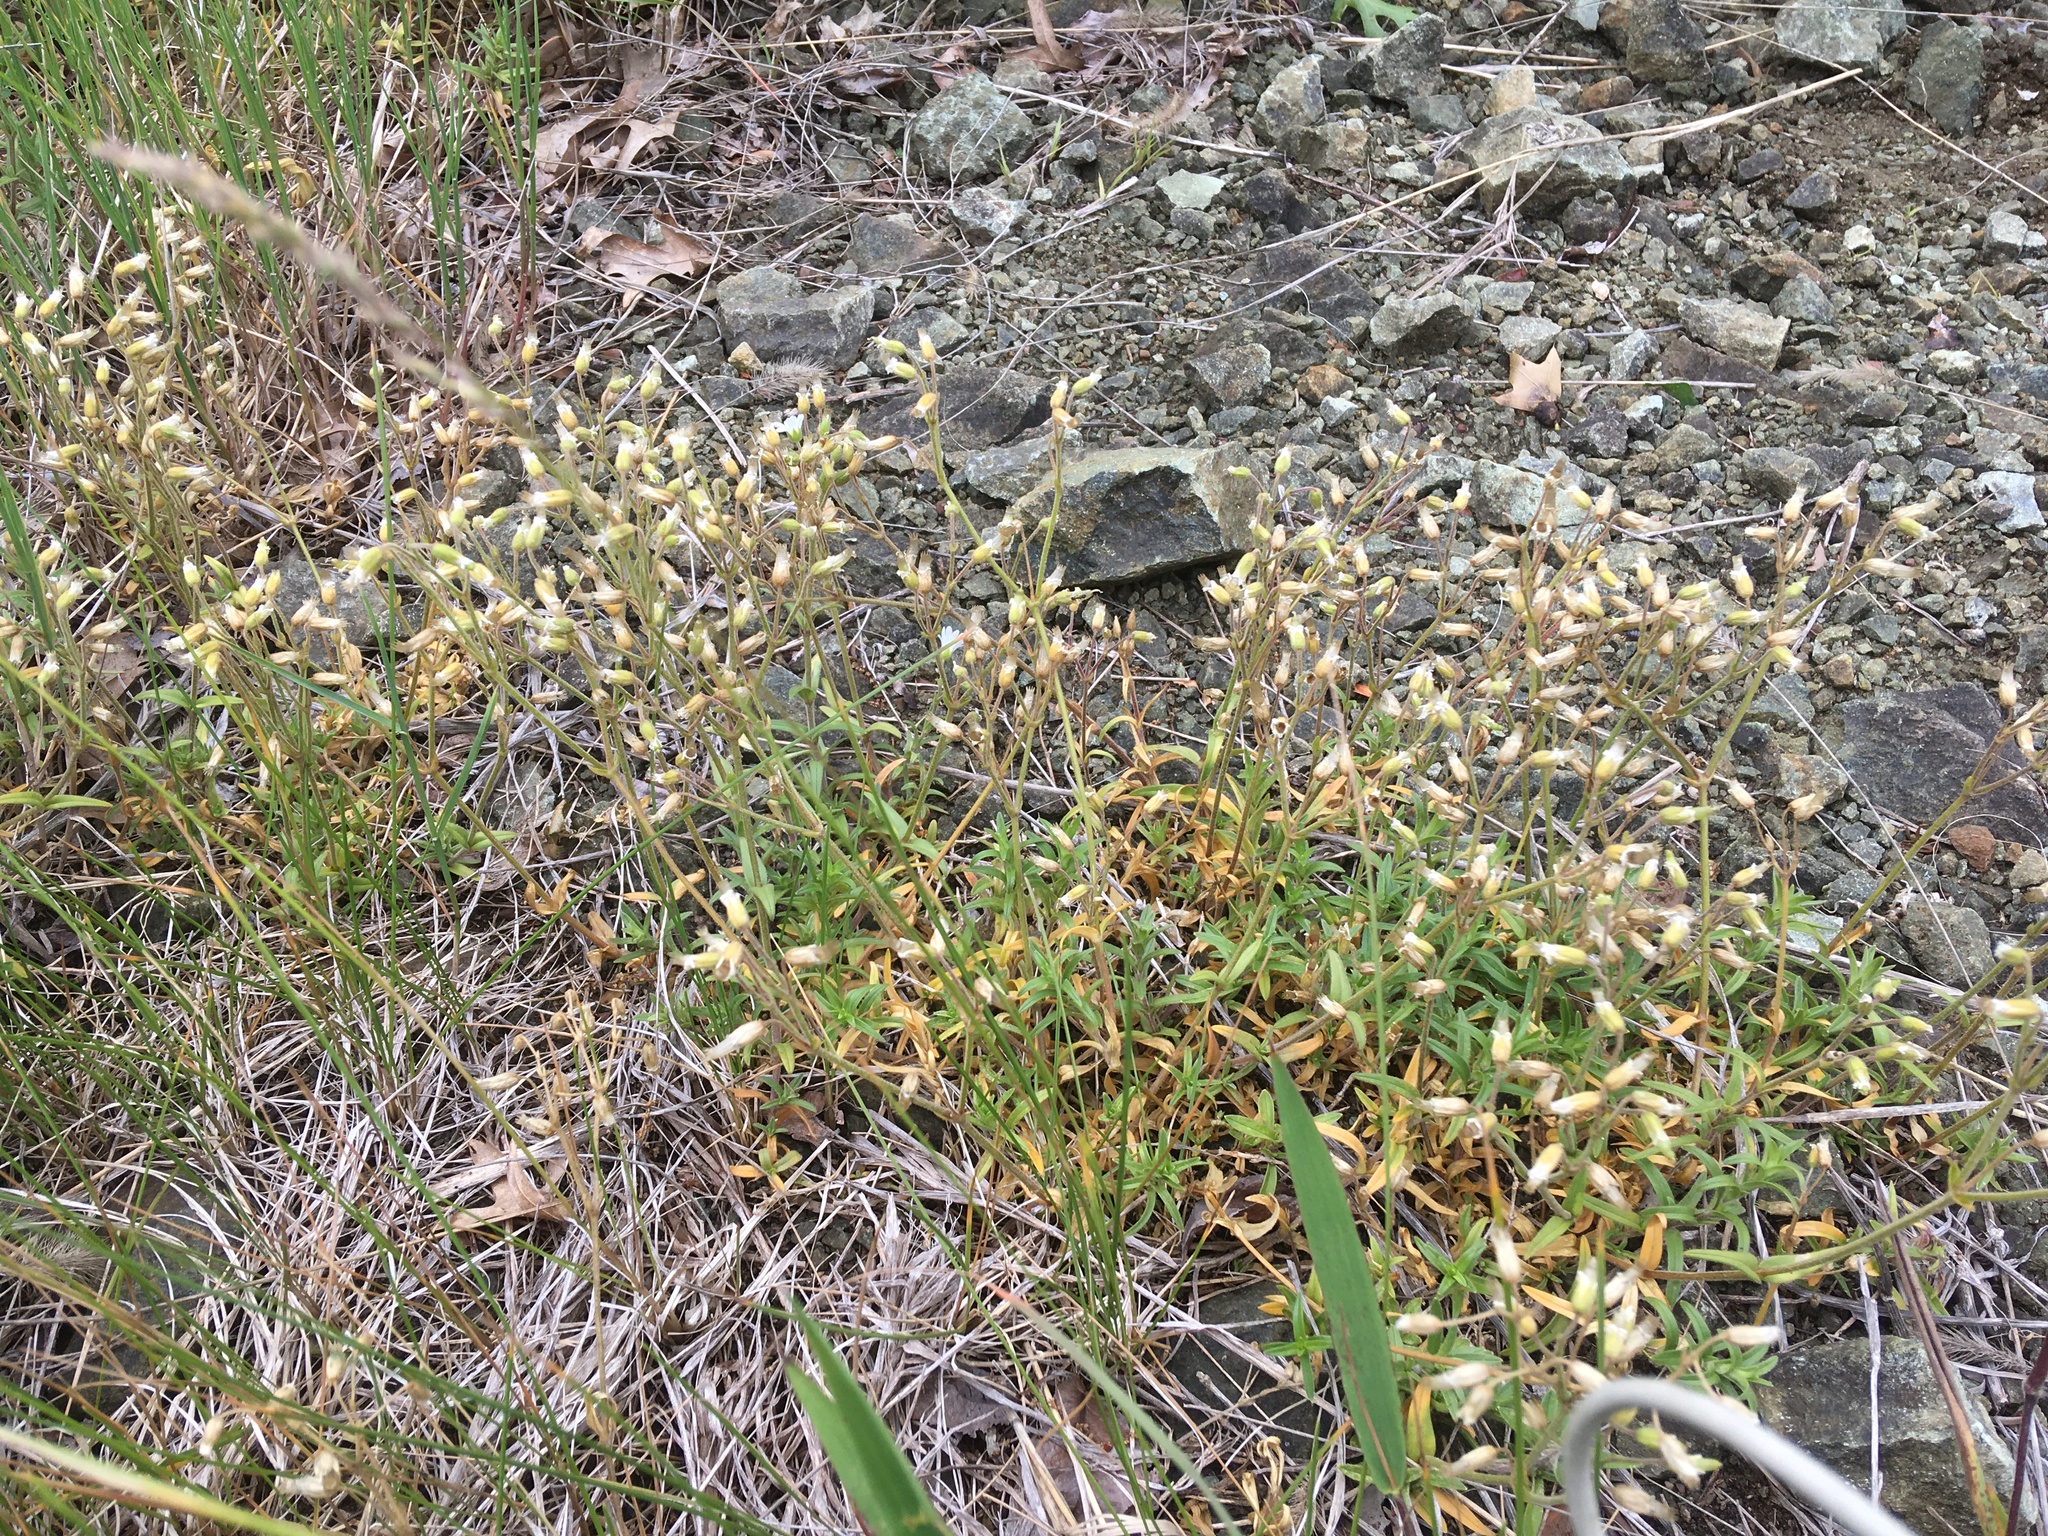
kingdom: Plantae
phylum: Tracheophyta
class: Magnoliopsida
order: Caryophyllales
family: Caryophyllaceae
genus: Cerastium
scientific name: Cerastium arvense
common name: Field mouse-ear
